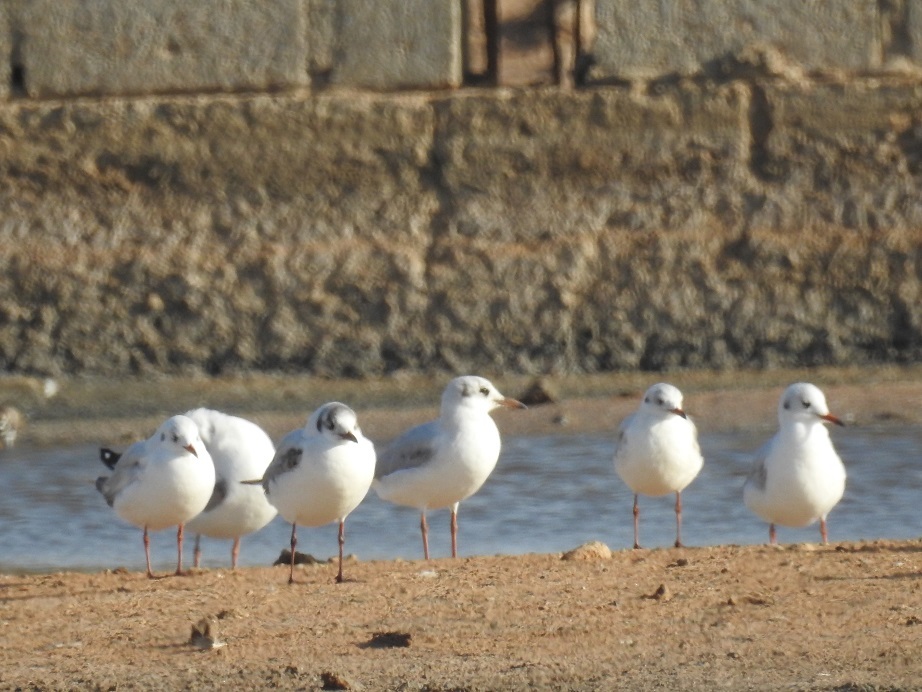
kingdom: Animalia
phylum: Chordata
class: Aves
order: Charadriiformes
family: Laridae
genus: Chroicocephalus
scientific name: Chroicocephalus ridibundus
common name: Black-headed gull
